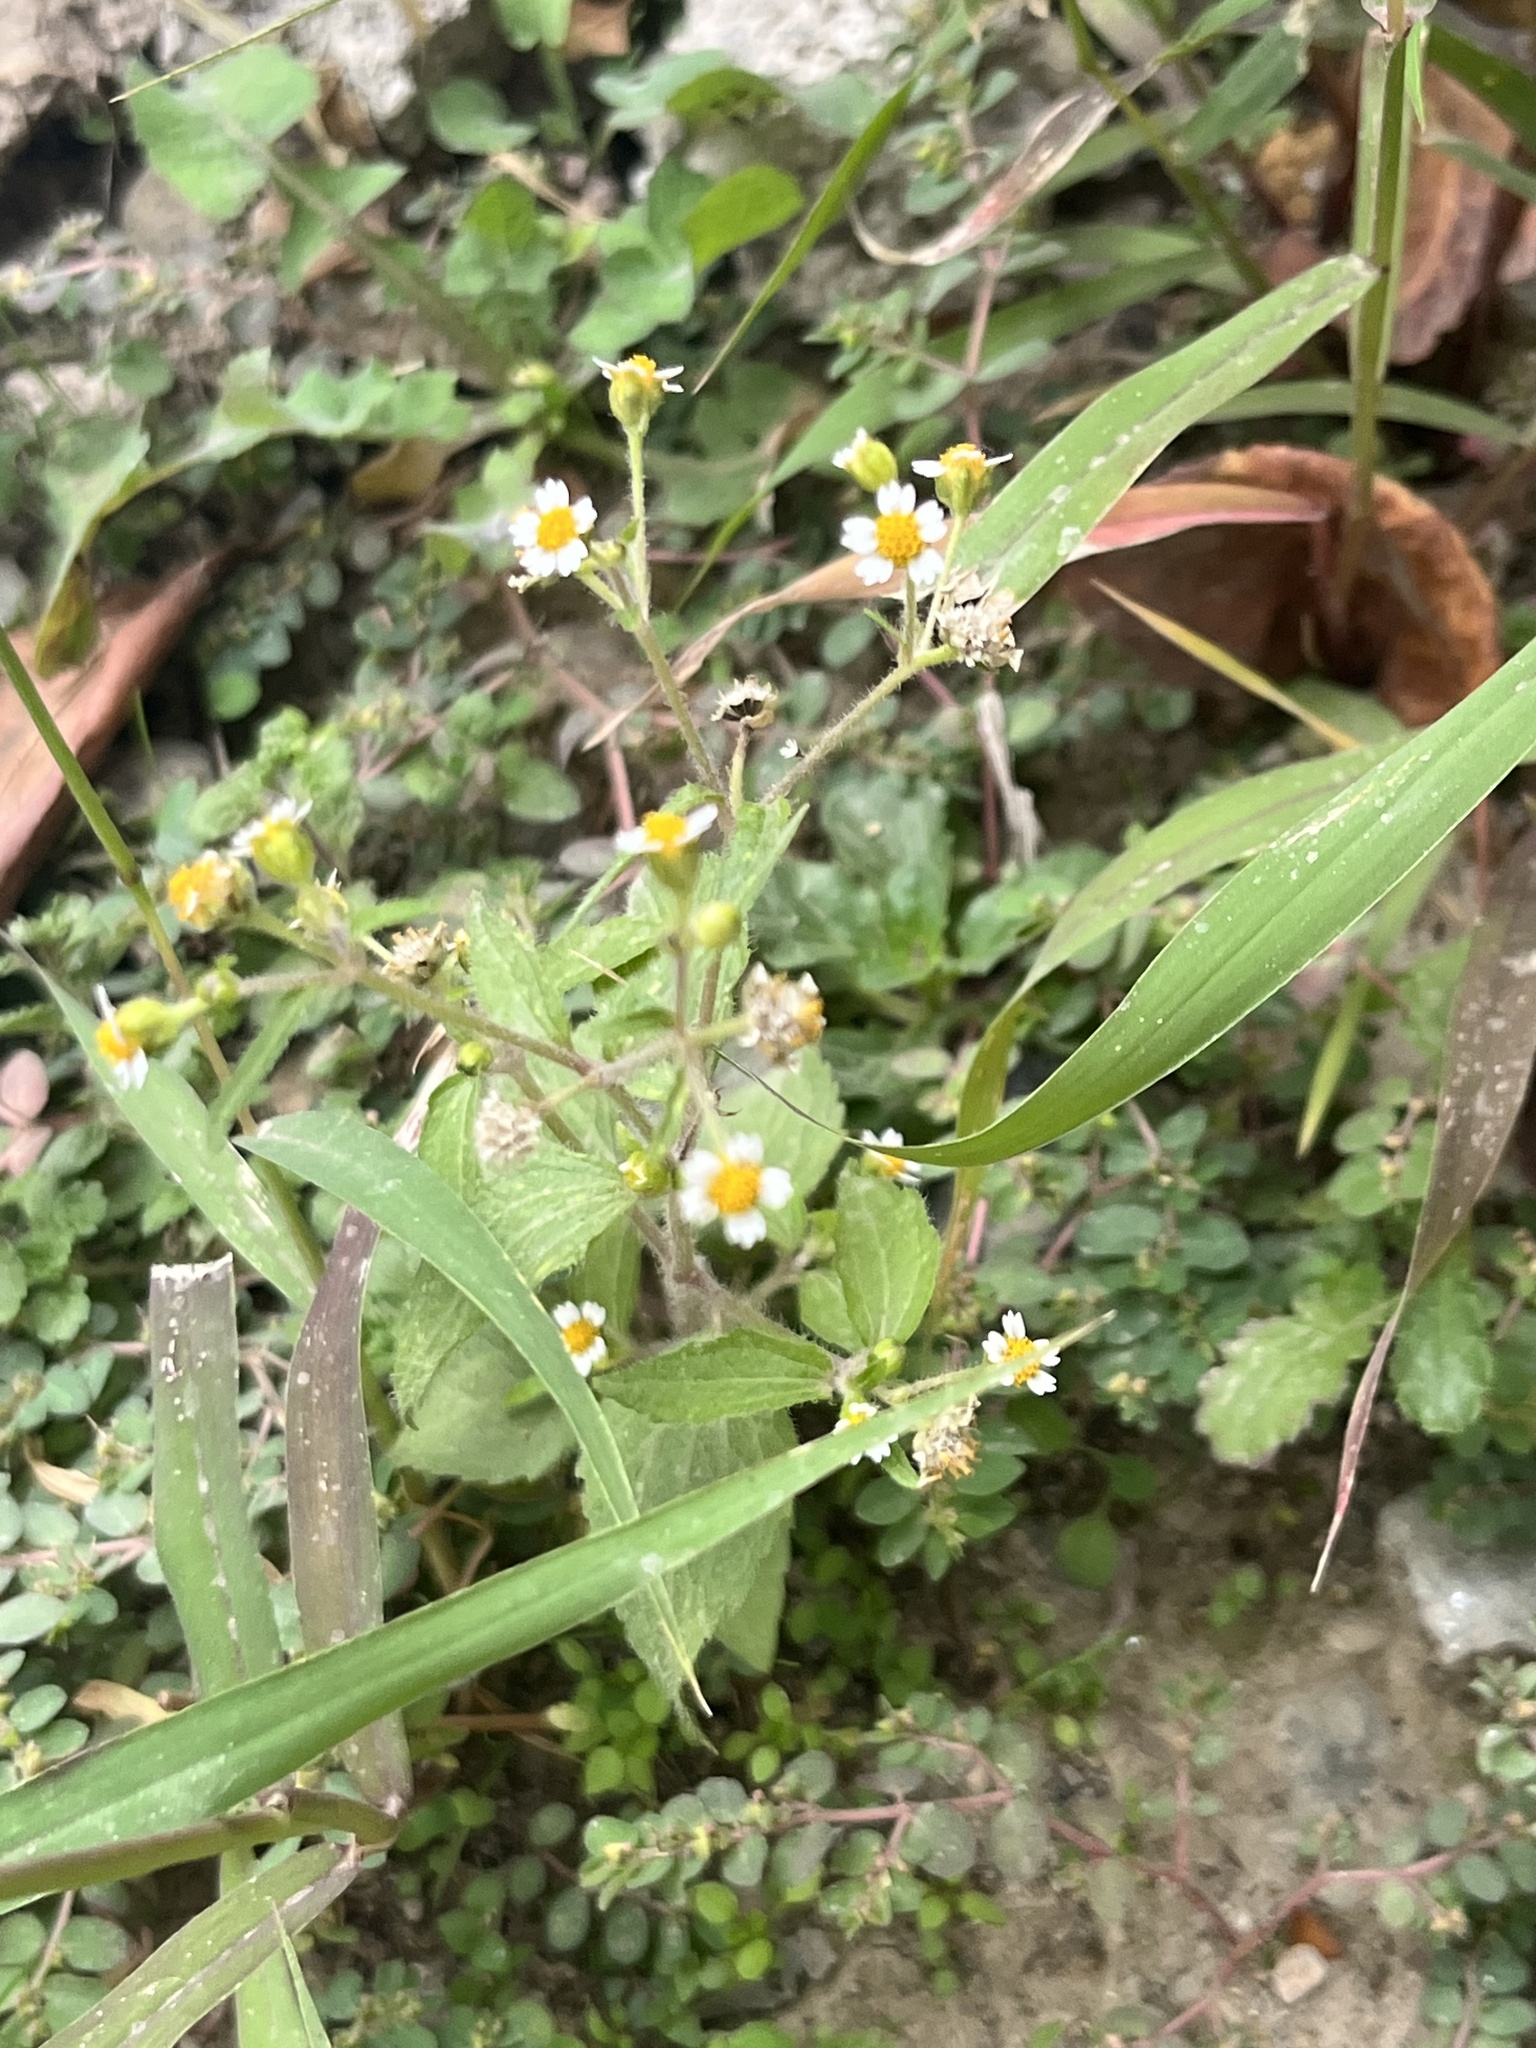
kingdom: Plantae
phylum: Tracheophyta
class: Magnoliopsida
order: Asterales
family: Asteraceae
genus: Galinsoga
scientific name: Galinsoga quadriradiata
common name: Shaggy soldier
